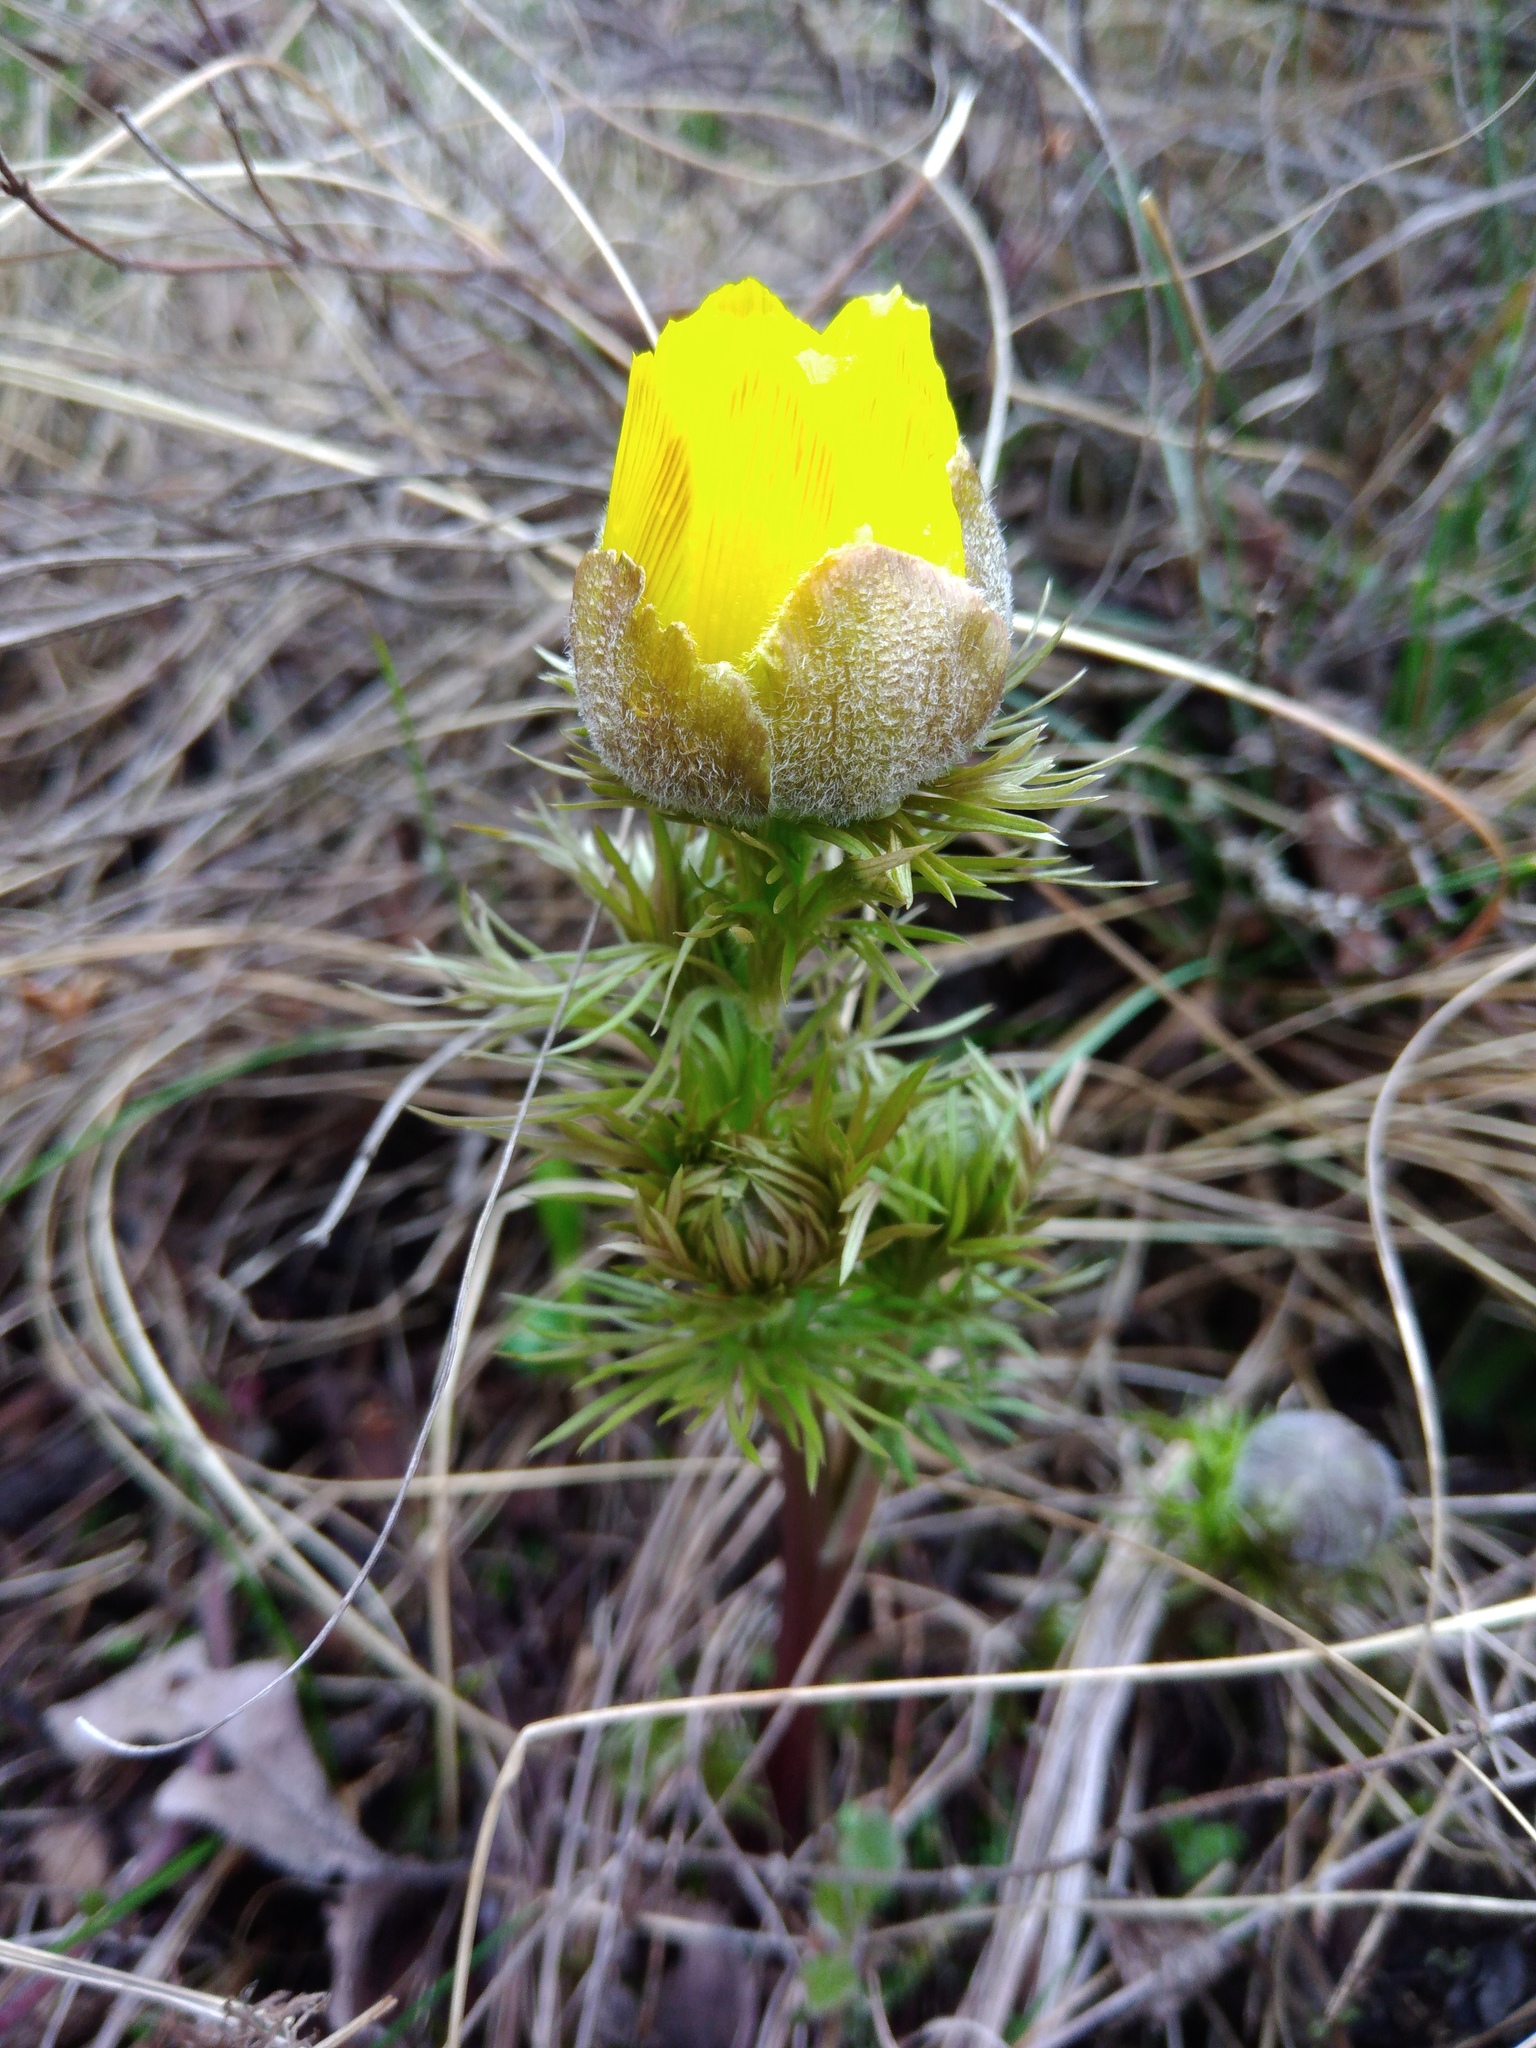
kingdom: Plantae
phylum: Tracheophyta
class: Magnoliopsida
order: Ranunculales
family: Ranunculaceae
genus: Adonis
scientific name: Adonis vernalis
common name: Yellow pheasants-eye
